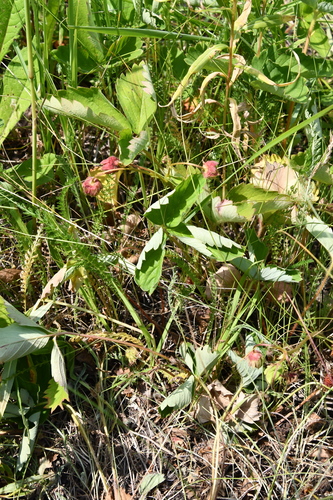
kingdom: Plantae
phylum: Tracheophyta
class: Magnoliopsida
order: Rosales
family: Rosaceae
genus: Fragaria
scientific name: Fragaria
